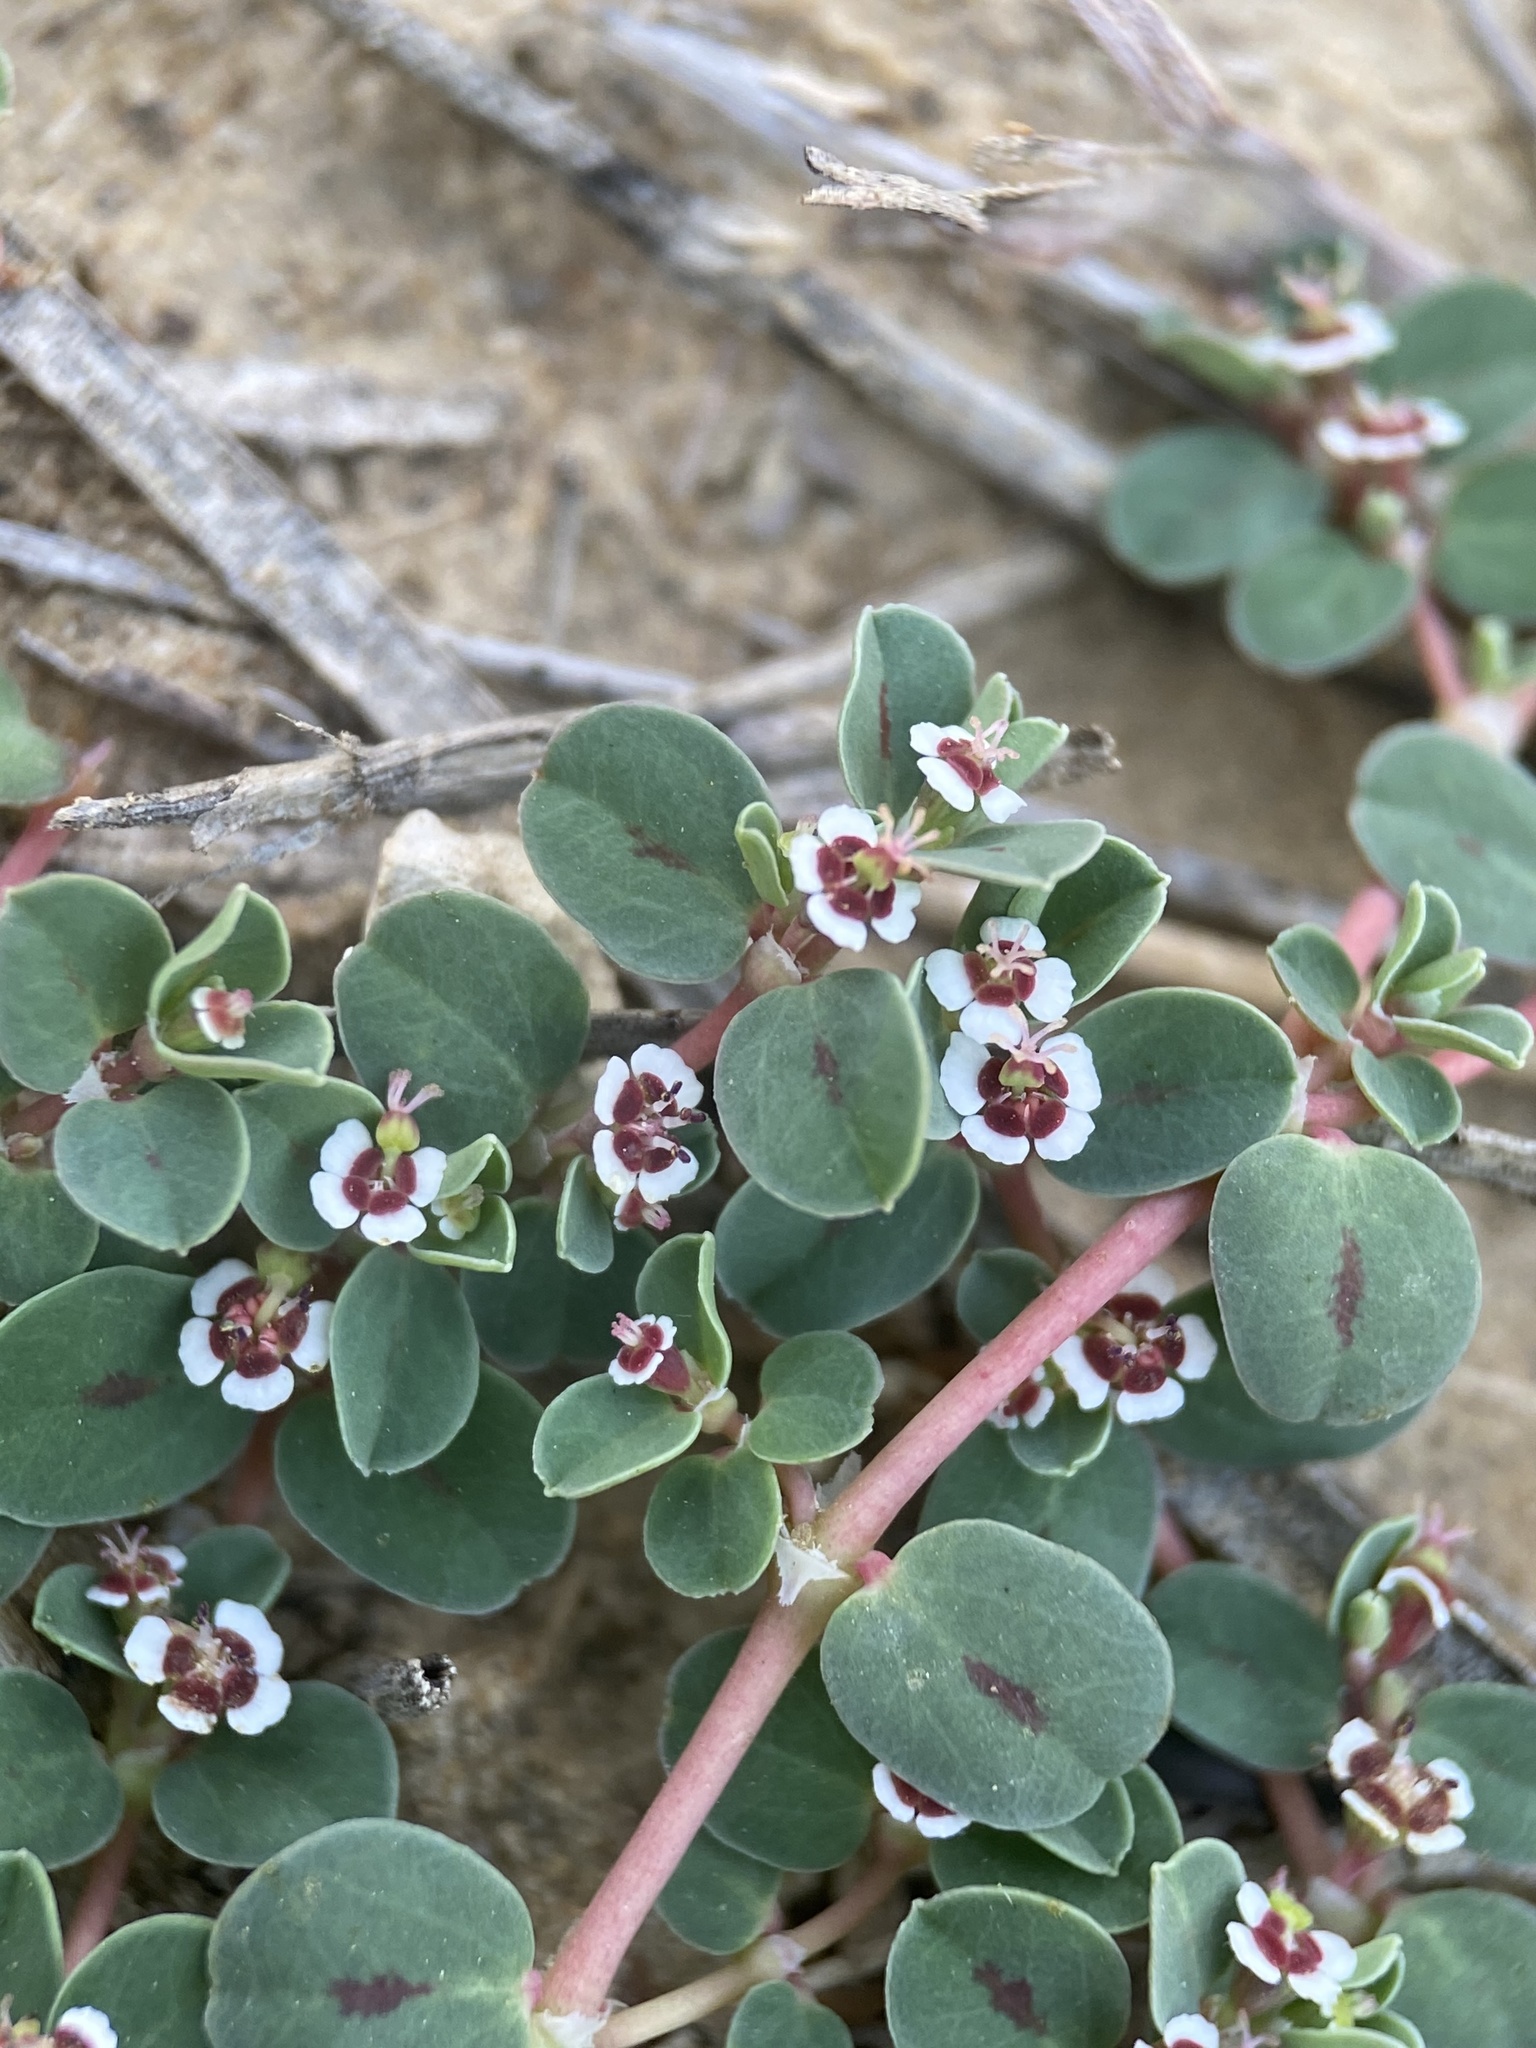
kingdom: Plantae
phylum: Tracheophyta
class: Magnoliopsida
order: Malpighiales
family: Euphorbiaceae
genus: Euphorbia
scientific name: Euphorbia albomarginata
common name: Whitemargin sandmat
